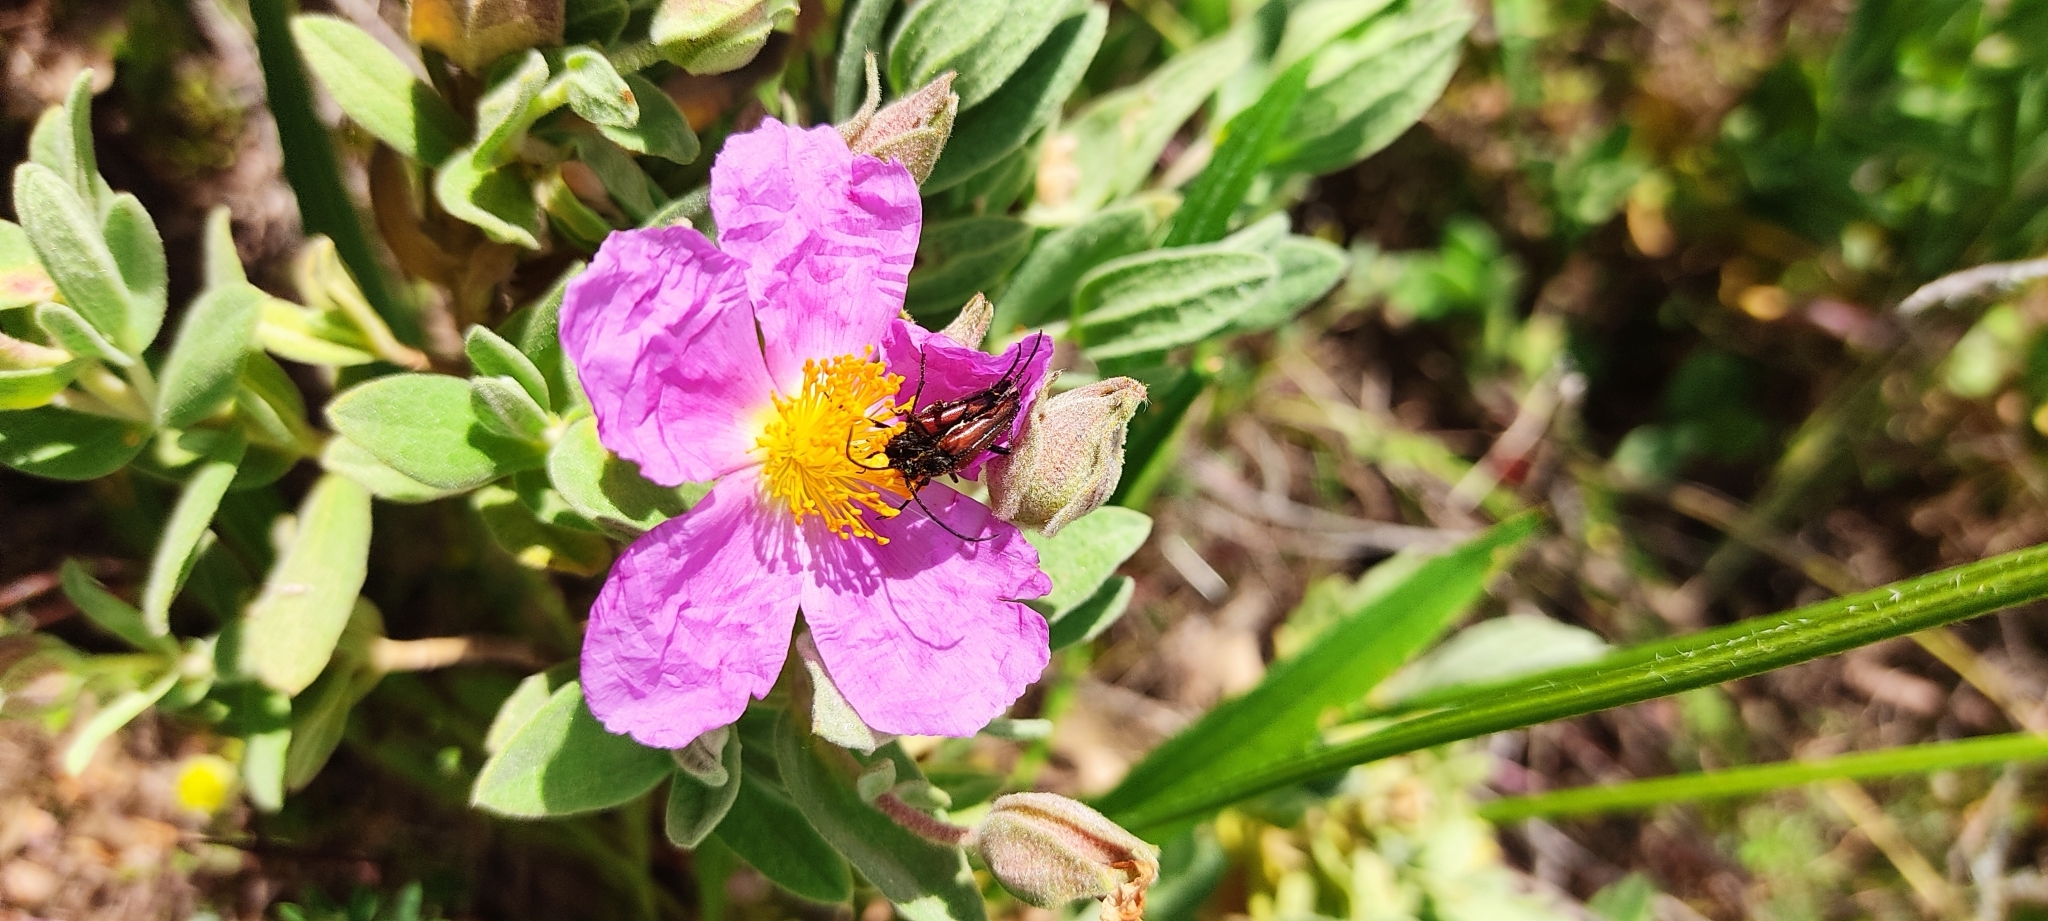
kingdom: Animalia
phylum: Arthropoda
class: Insecta
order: Coleoptera
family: Cerambycidae
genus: Stenurella
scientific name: Stenurella bifasciata
